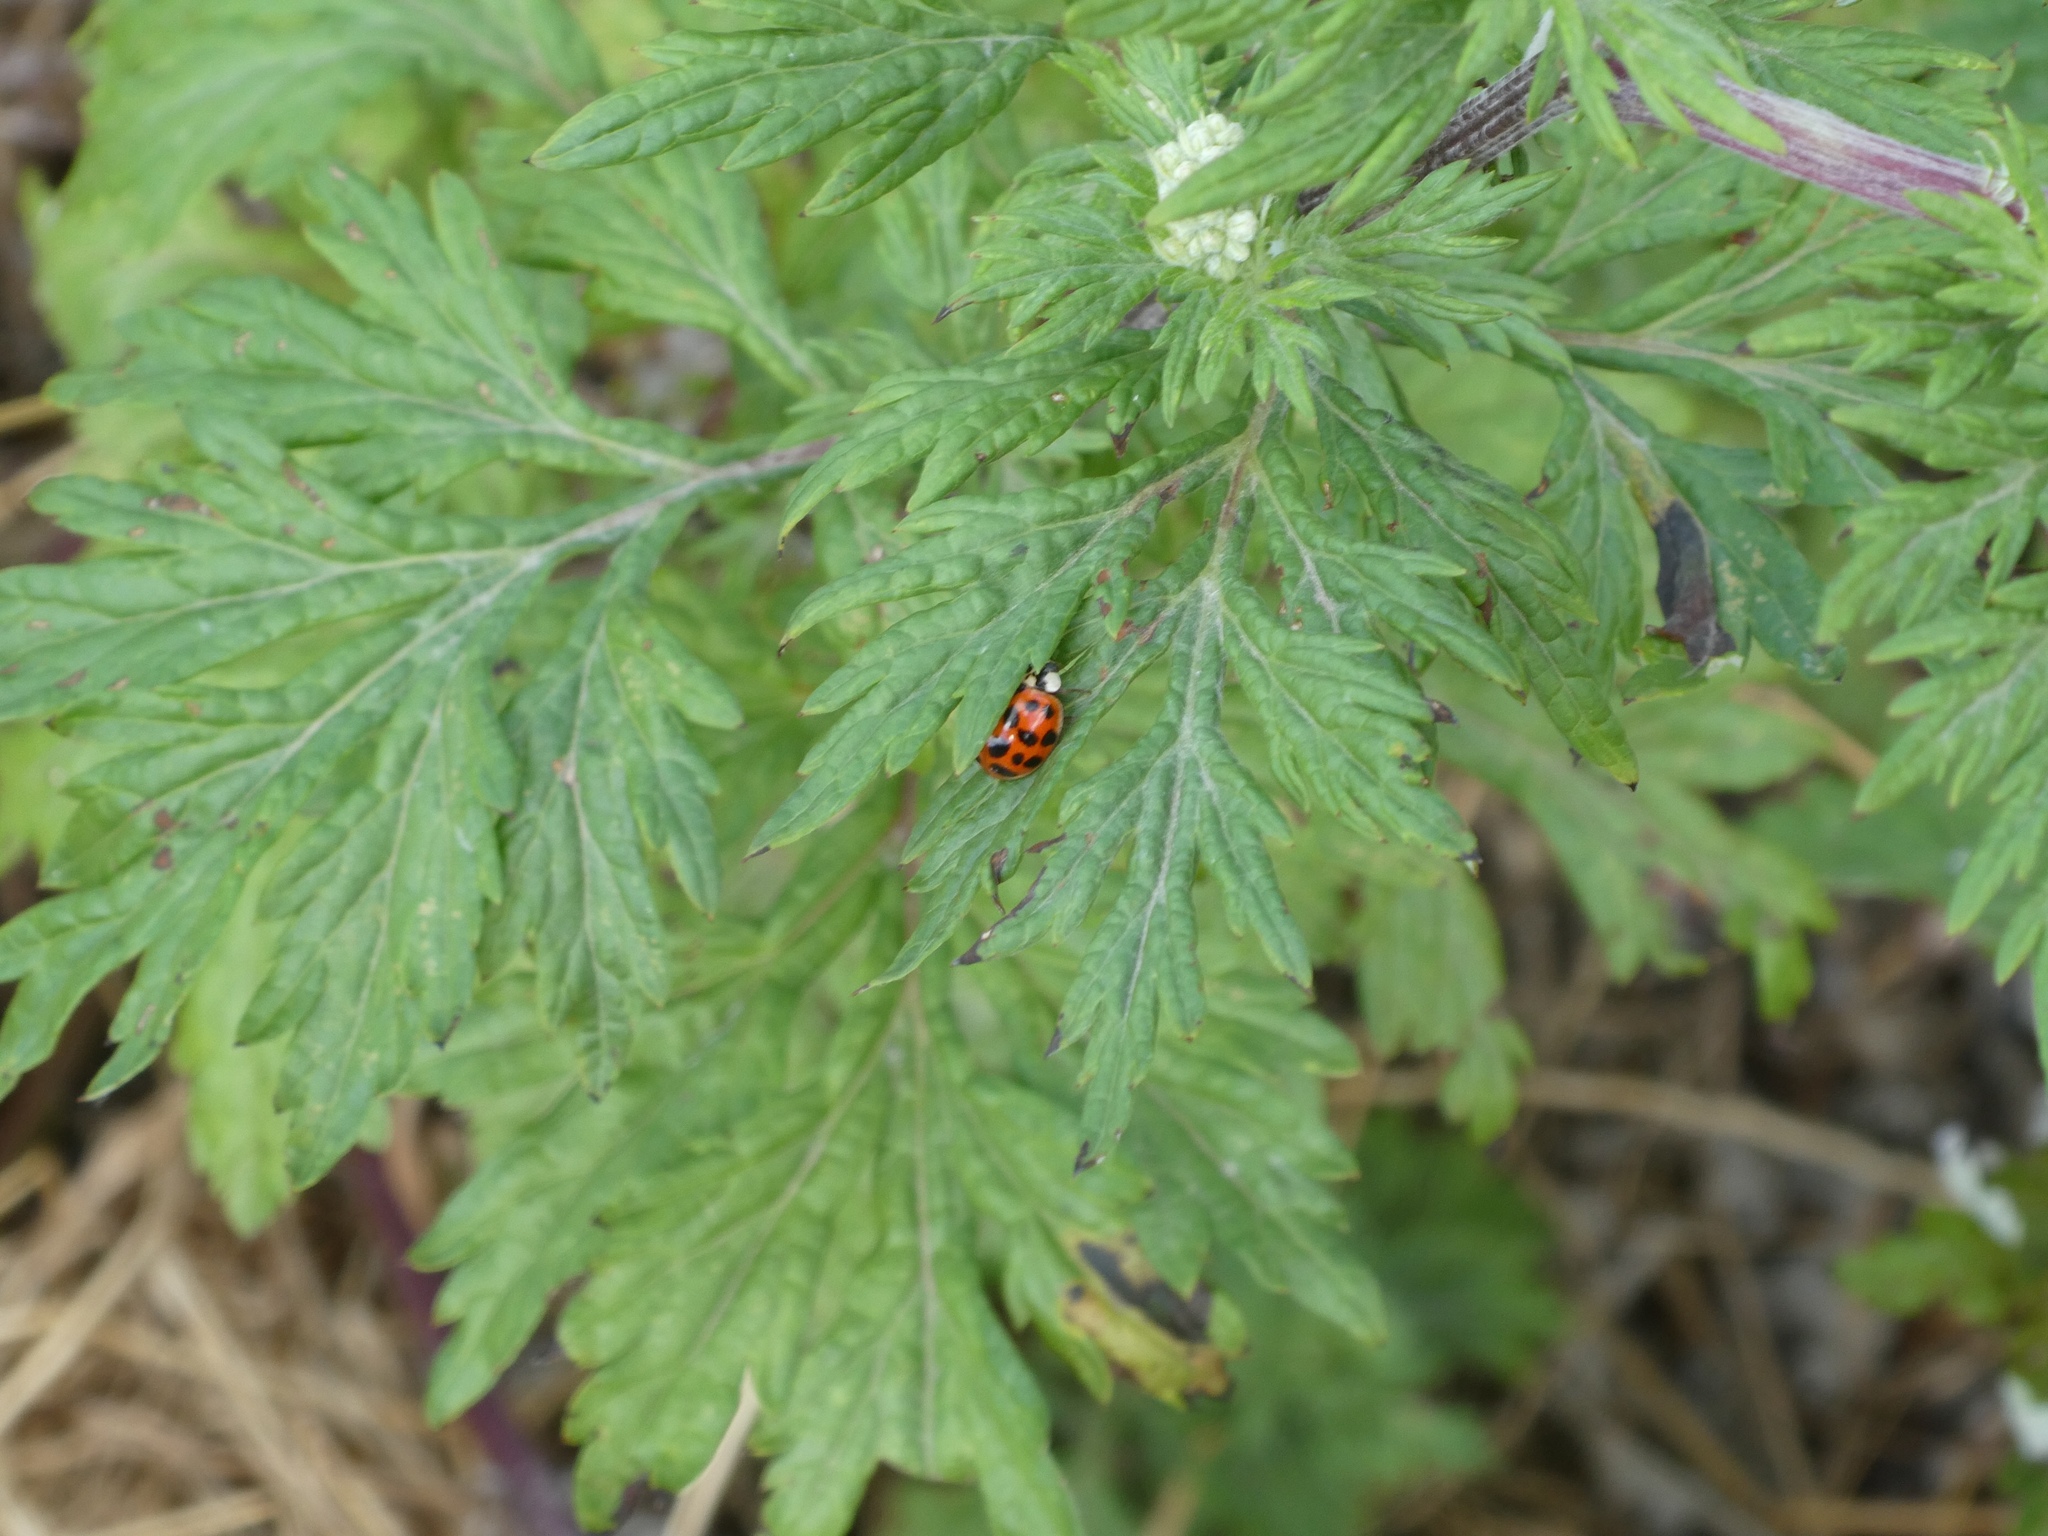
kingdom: Animalia
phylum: Arthropoda
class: Insecta
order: Coleoptera
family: Coccinellidae
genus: Harmonia
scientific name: Harmonia axyridis
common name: Harlequin ladybird
